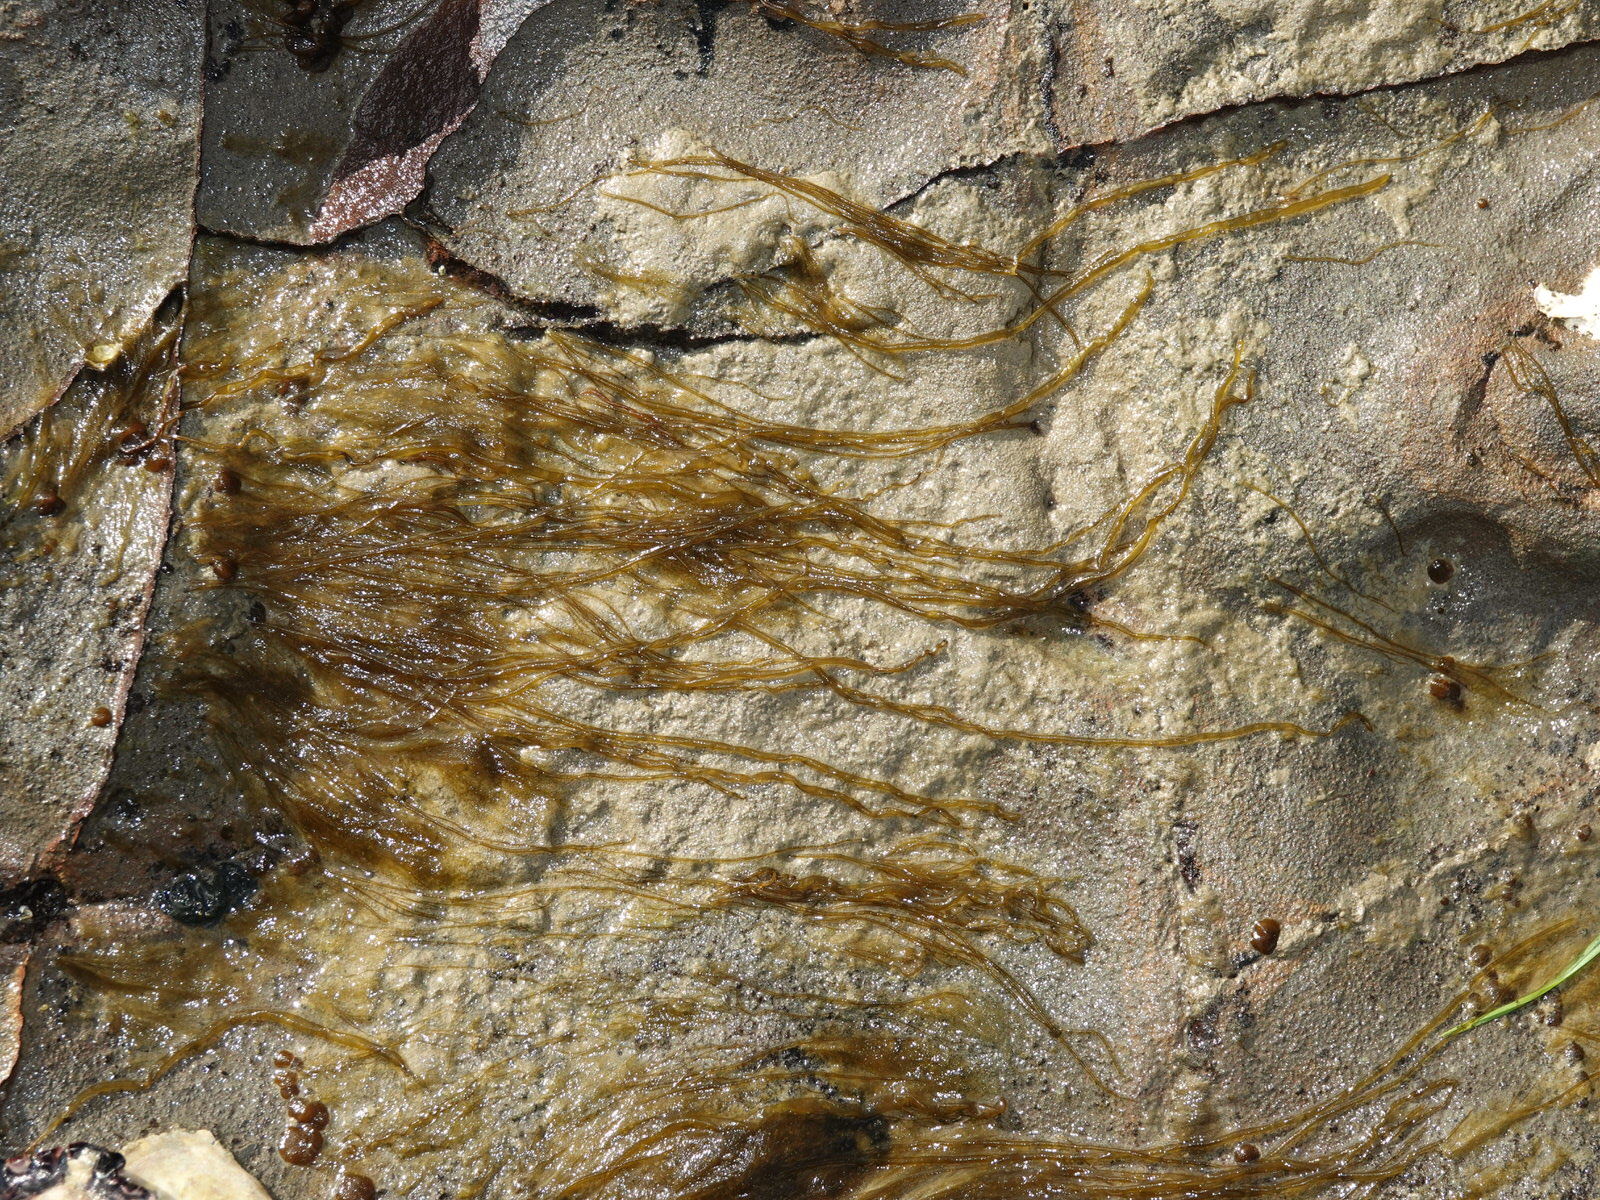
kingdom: Chromista
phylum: Ochrophyta
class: Phaeophyceae
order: Scytosiphonales
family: Scytosiphonaceae
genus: Scytosiphon
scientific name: Scytosiphon lomentaria
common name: Beanweed
